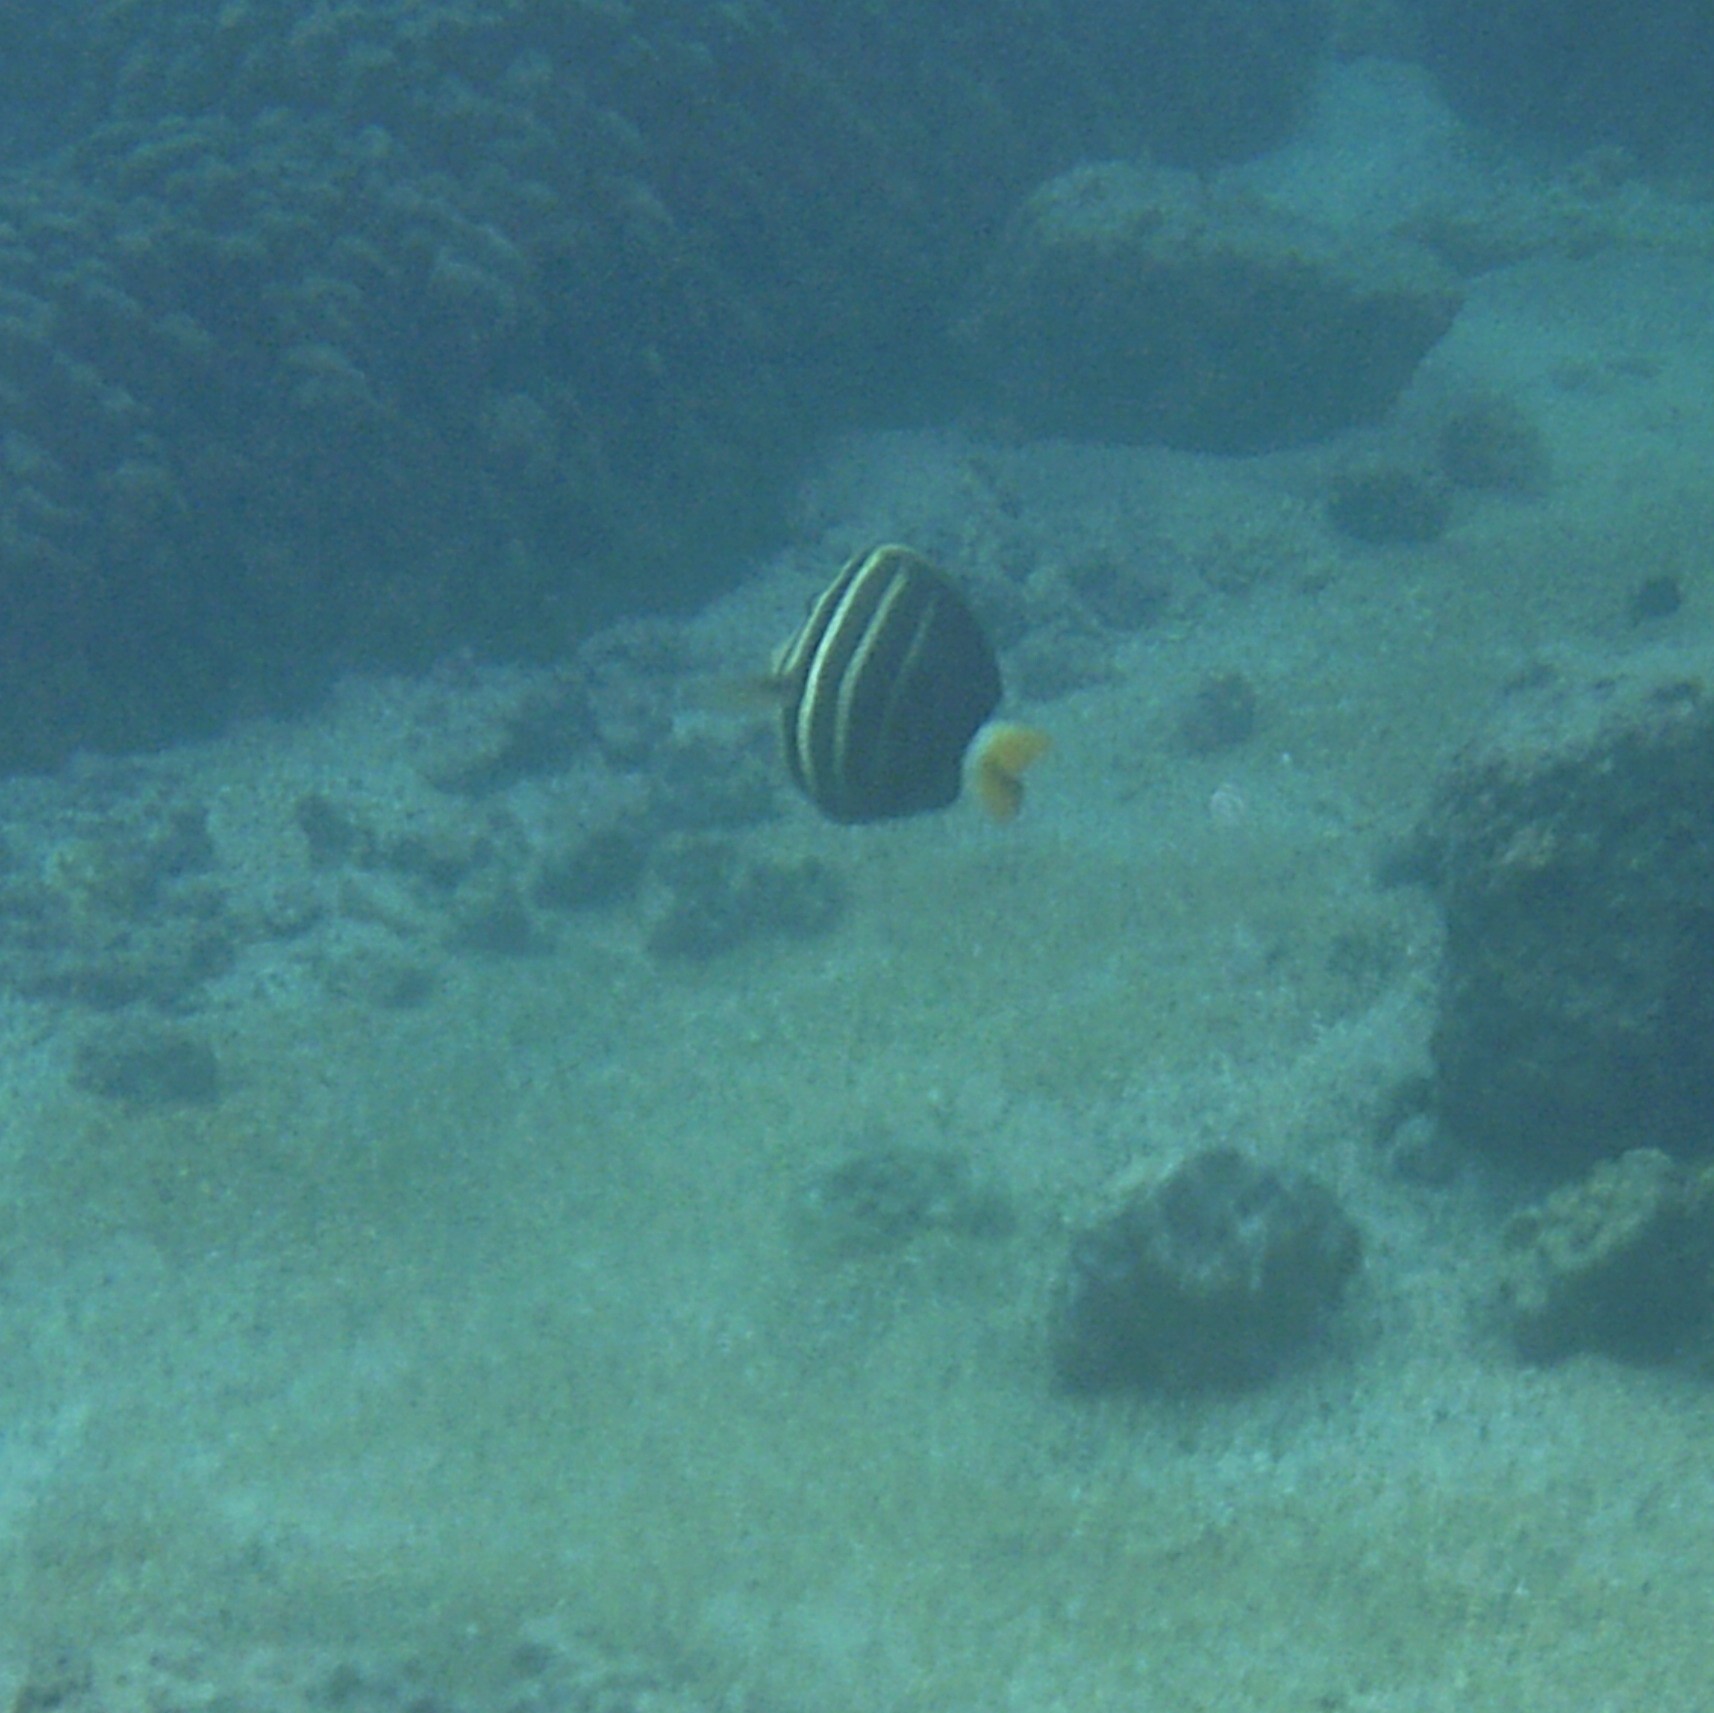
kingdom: Animalia
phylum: Chordata
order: Perciformes
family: Acanthuridae
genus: Zebrasoma
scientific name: Zebrasoma veliferum
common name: Sailfin surgeonfish
